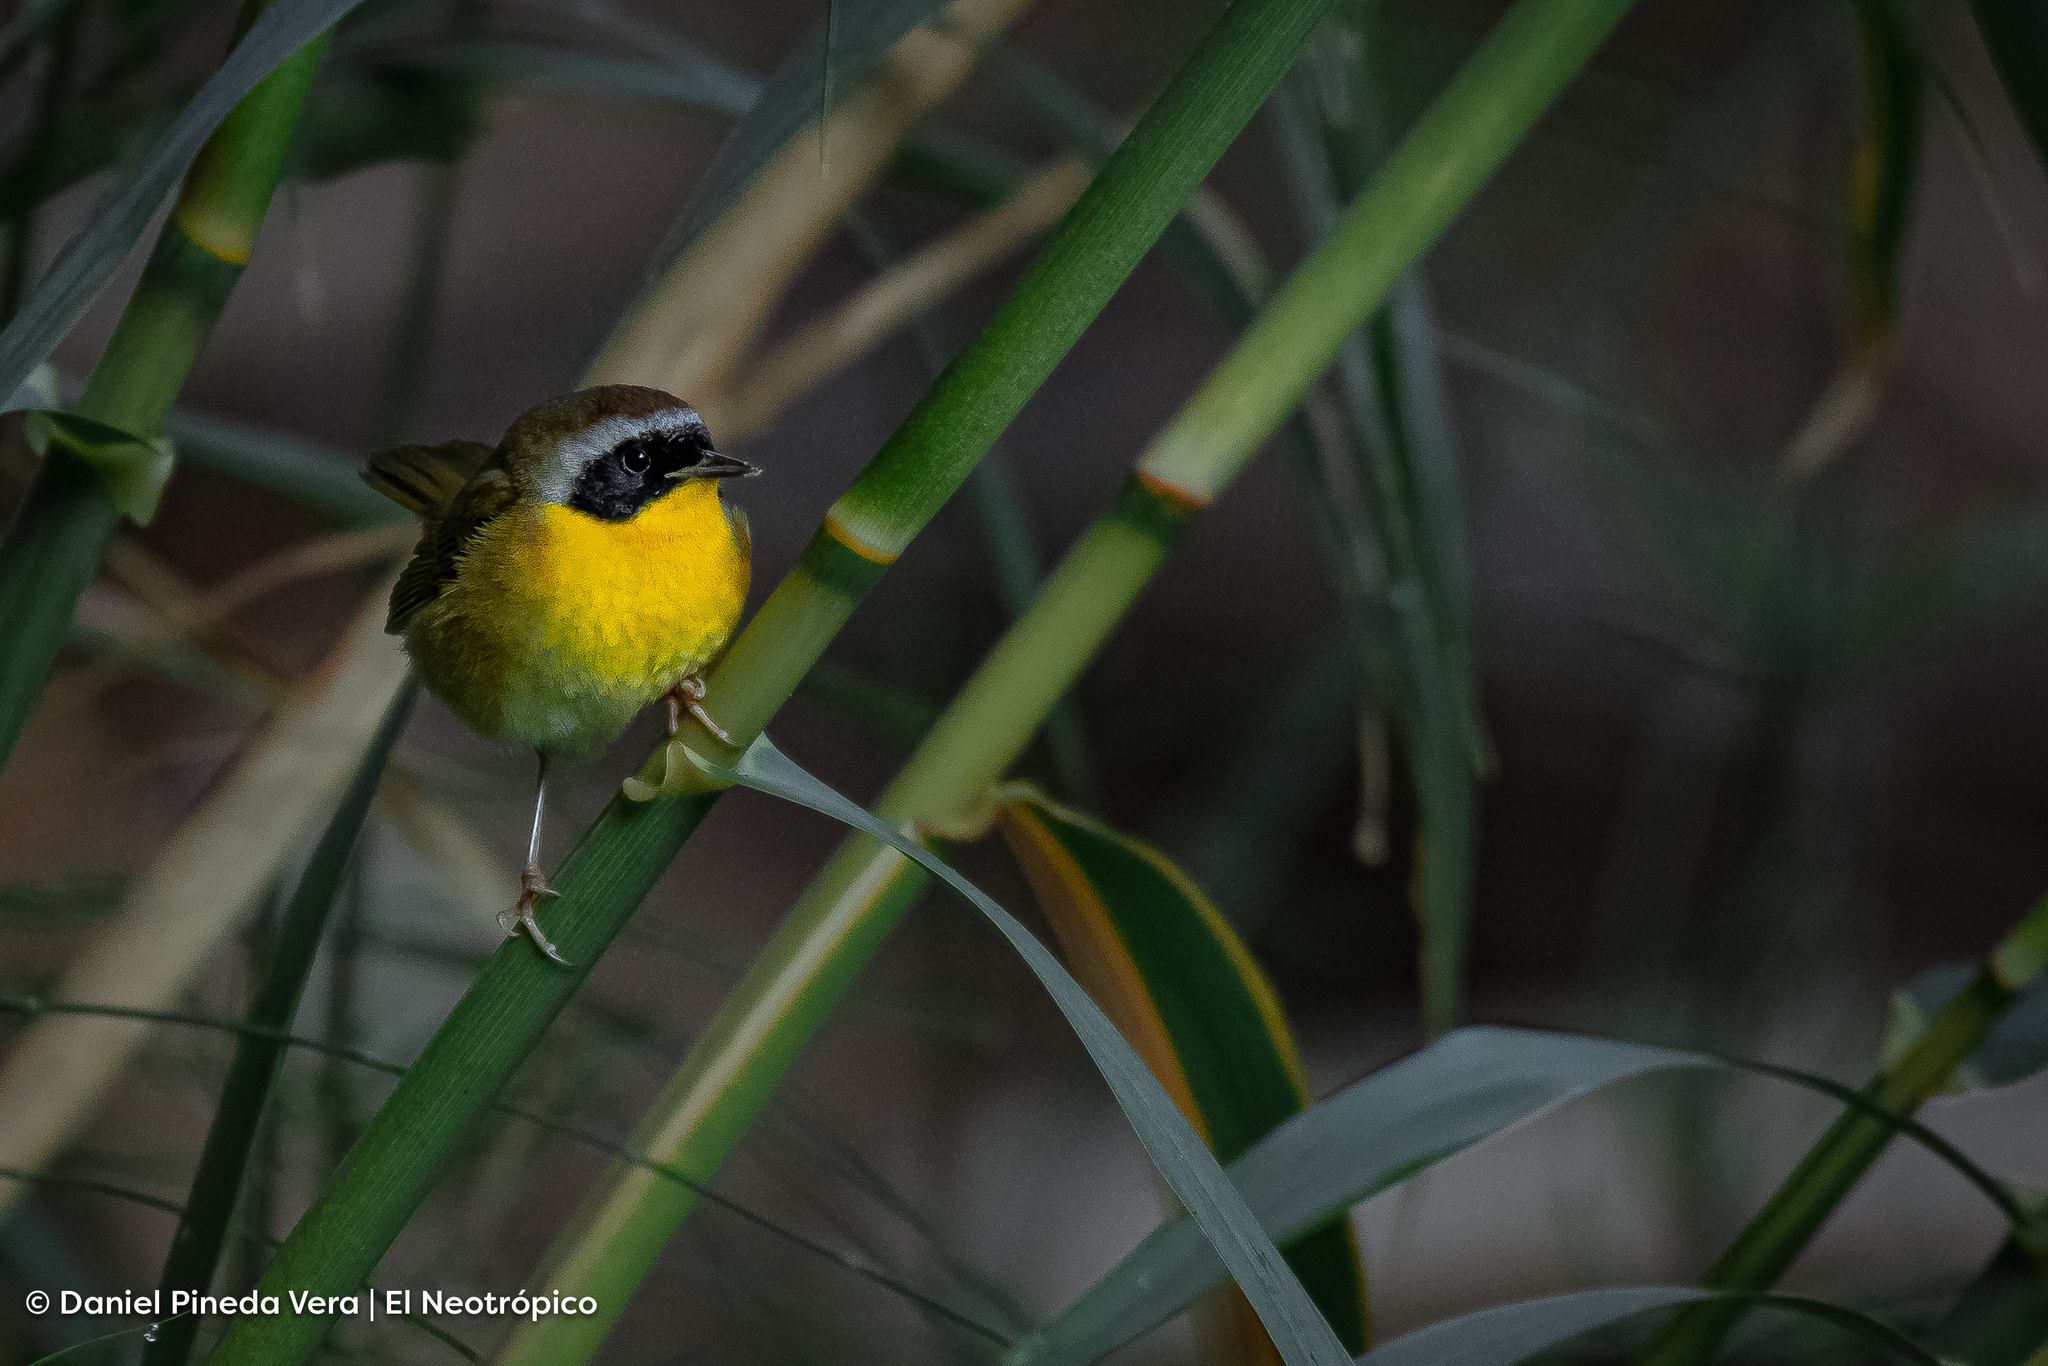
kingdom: Animalia
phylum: Chordata
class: Aves
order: Passeriformes
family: Parulidae
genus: Geothlypis
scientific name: Geothlypis trichas
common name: Common yellowthroat
